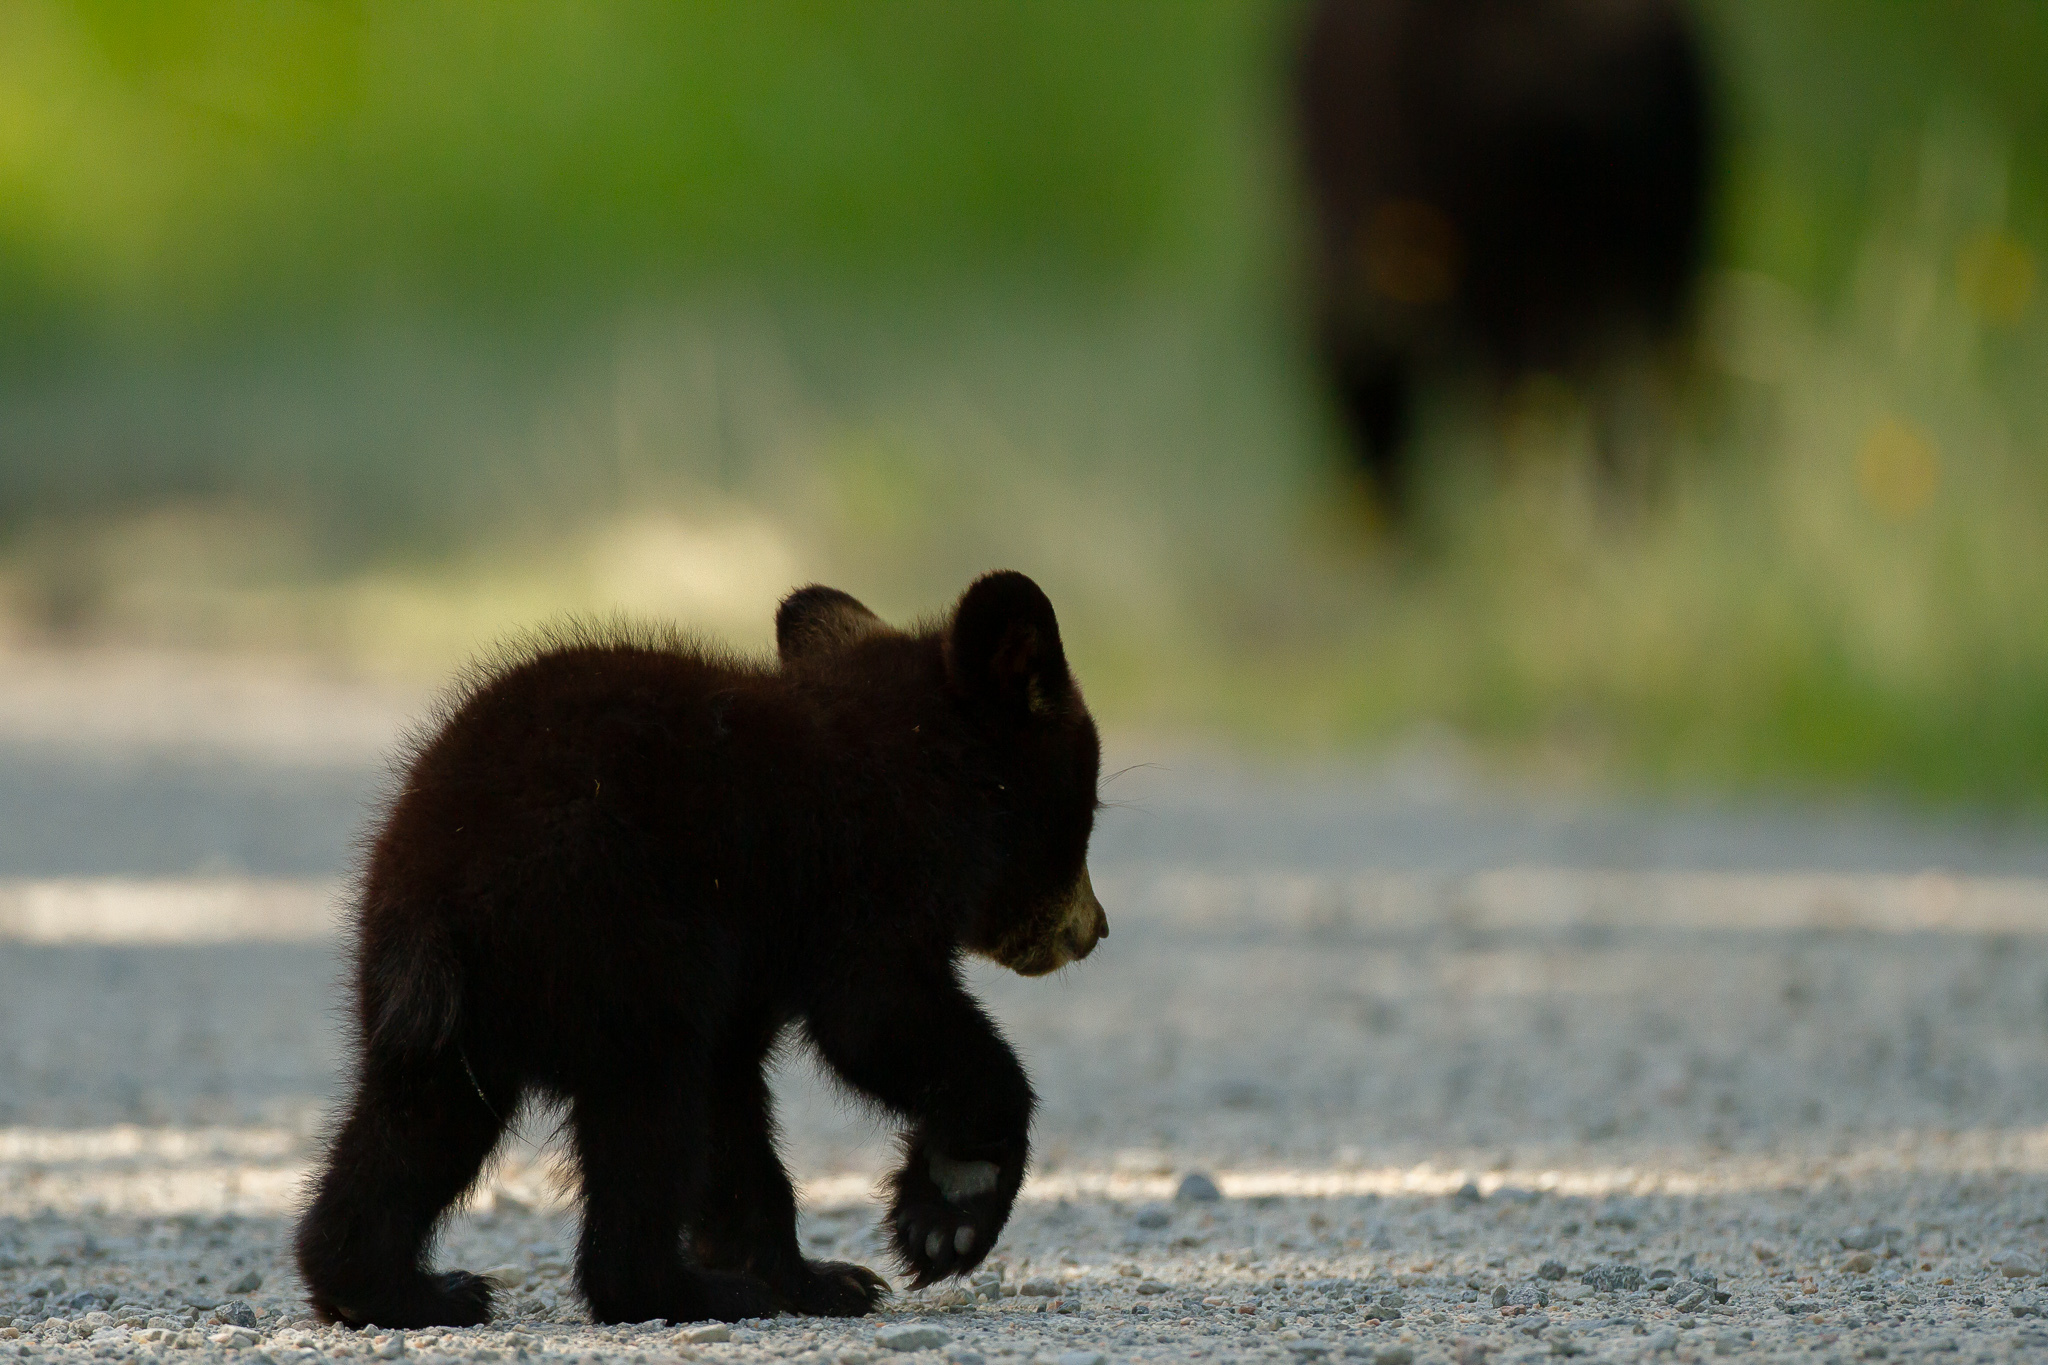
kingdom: Animalia
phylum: Chordata
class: Mammalia
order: Carnivora
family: Ursidae
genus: Ursus
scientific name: Ursus americanus
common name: American black bear
